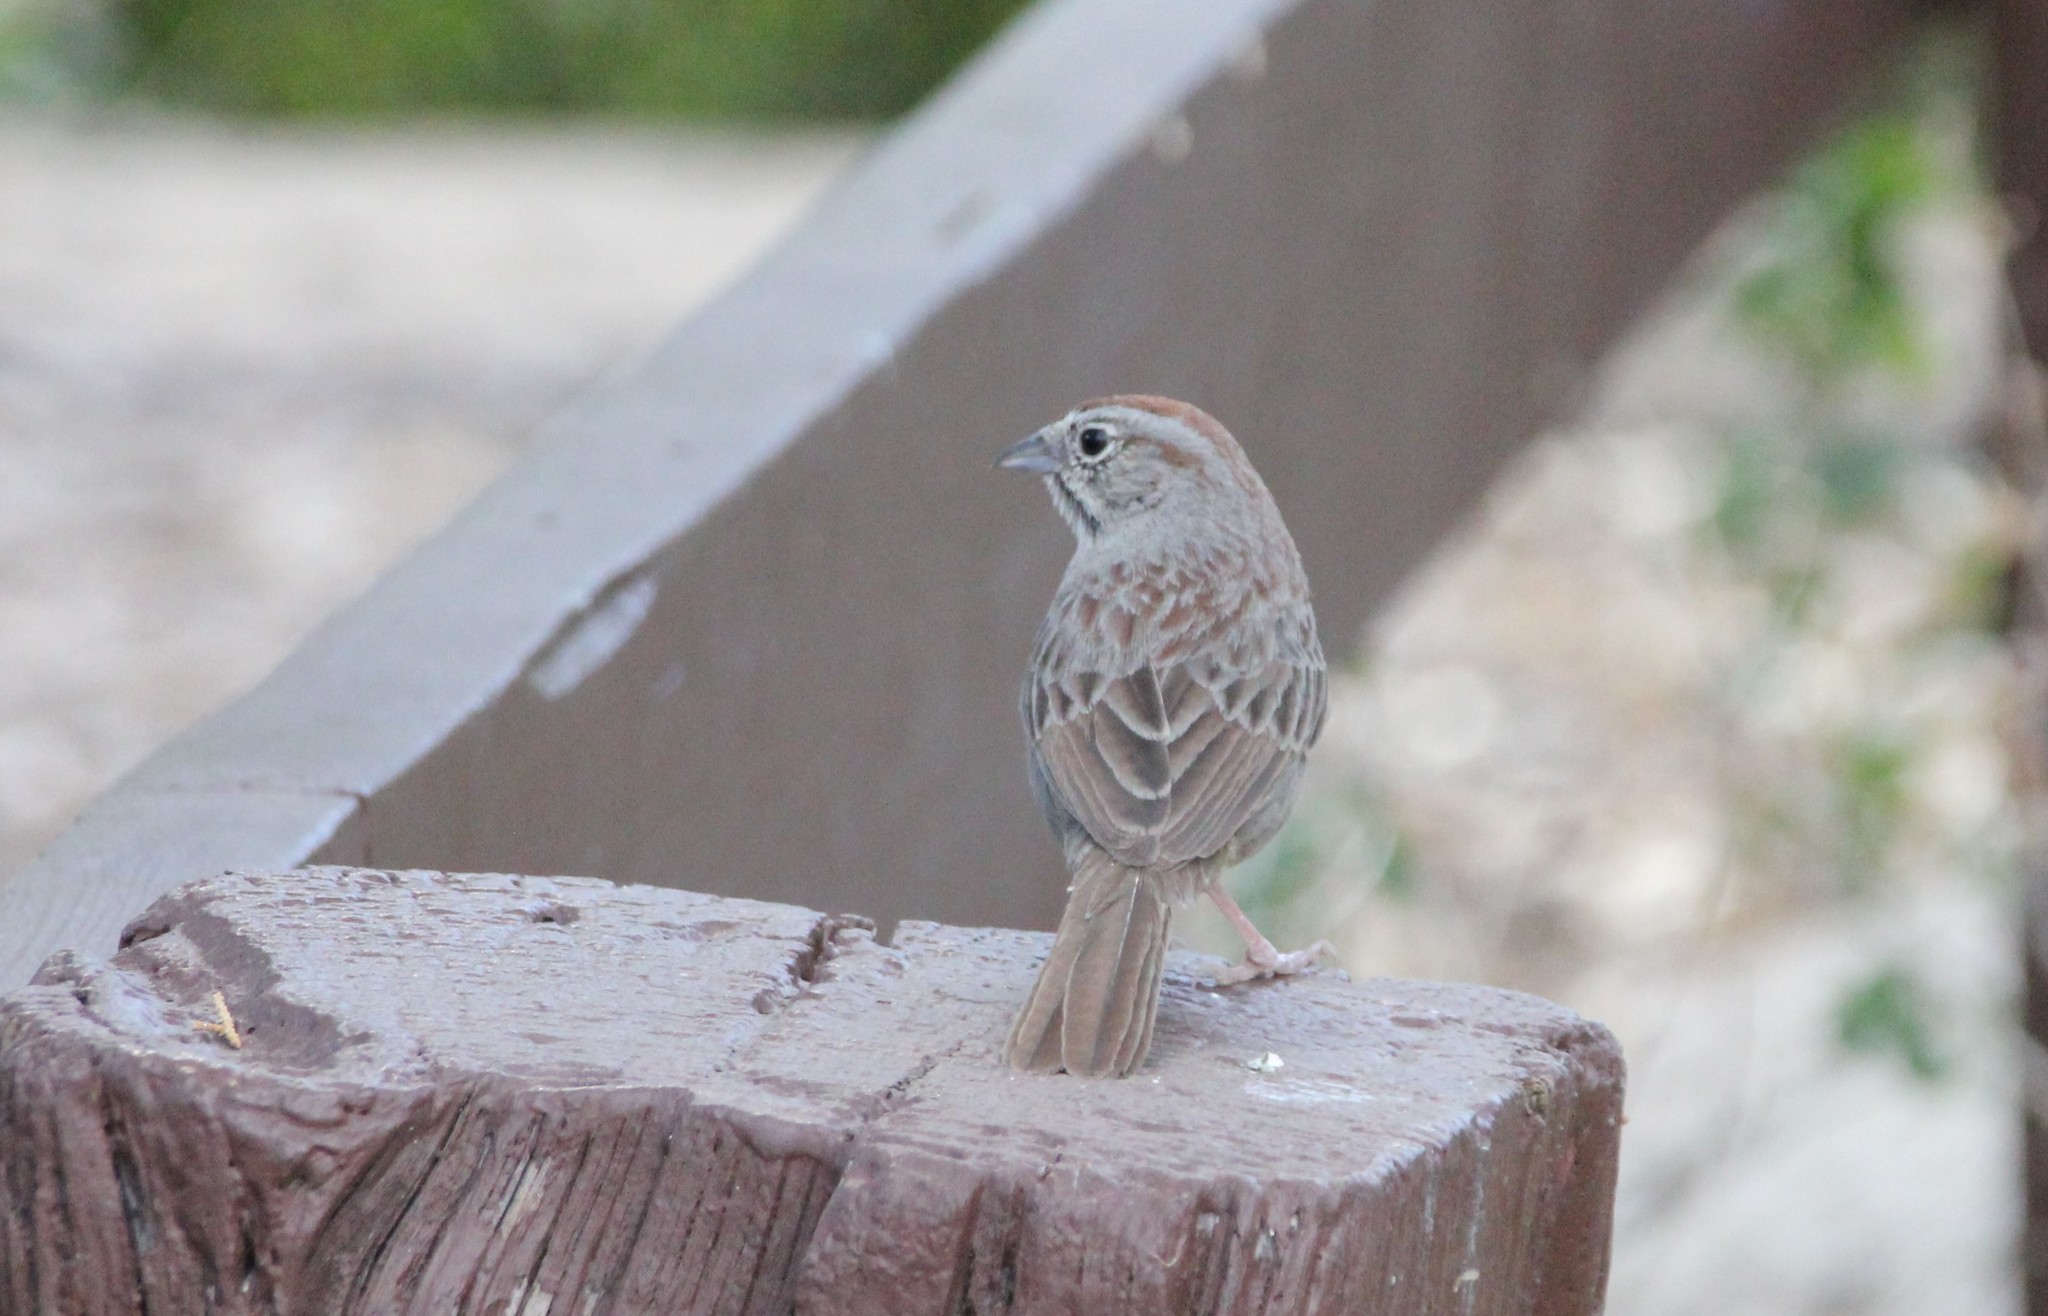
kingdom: Animalia
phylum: Chordata
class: Aves
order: Passeriformes
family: Passerellidae
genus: Aimophila
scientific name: Aimophila ruficeps
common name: Rufous-crowned sparrow
